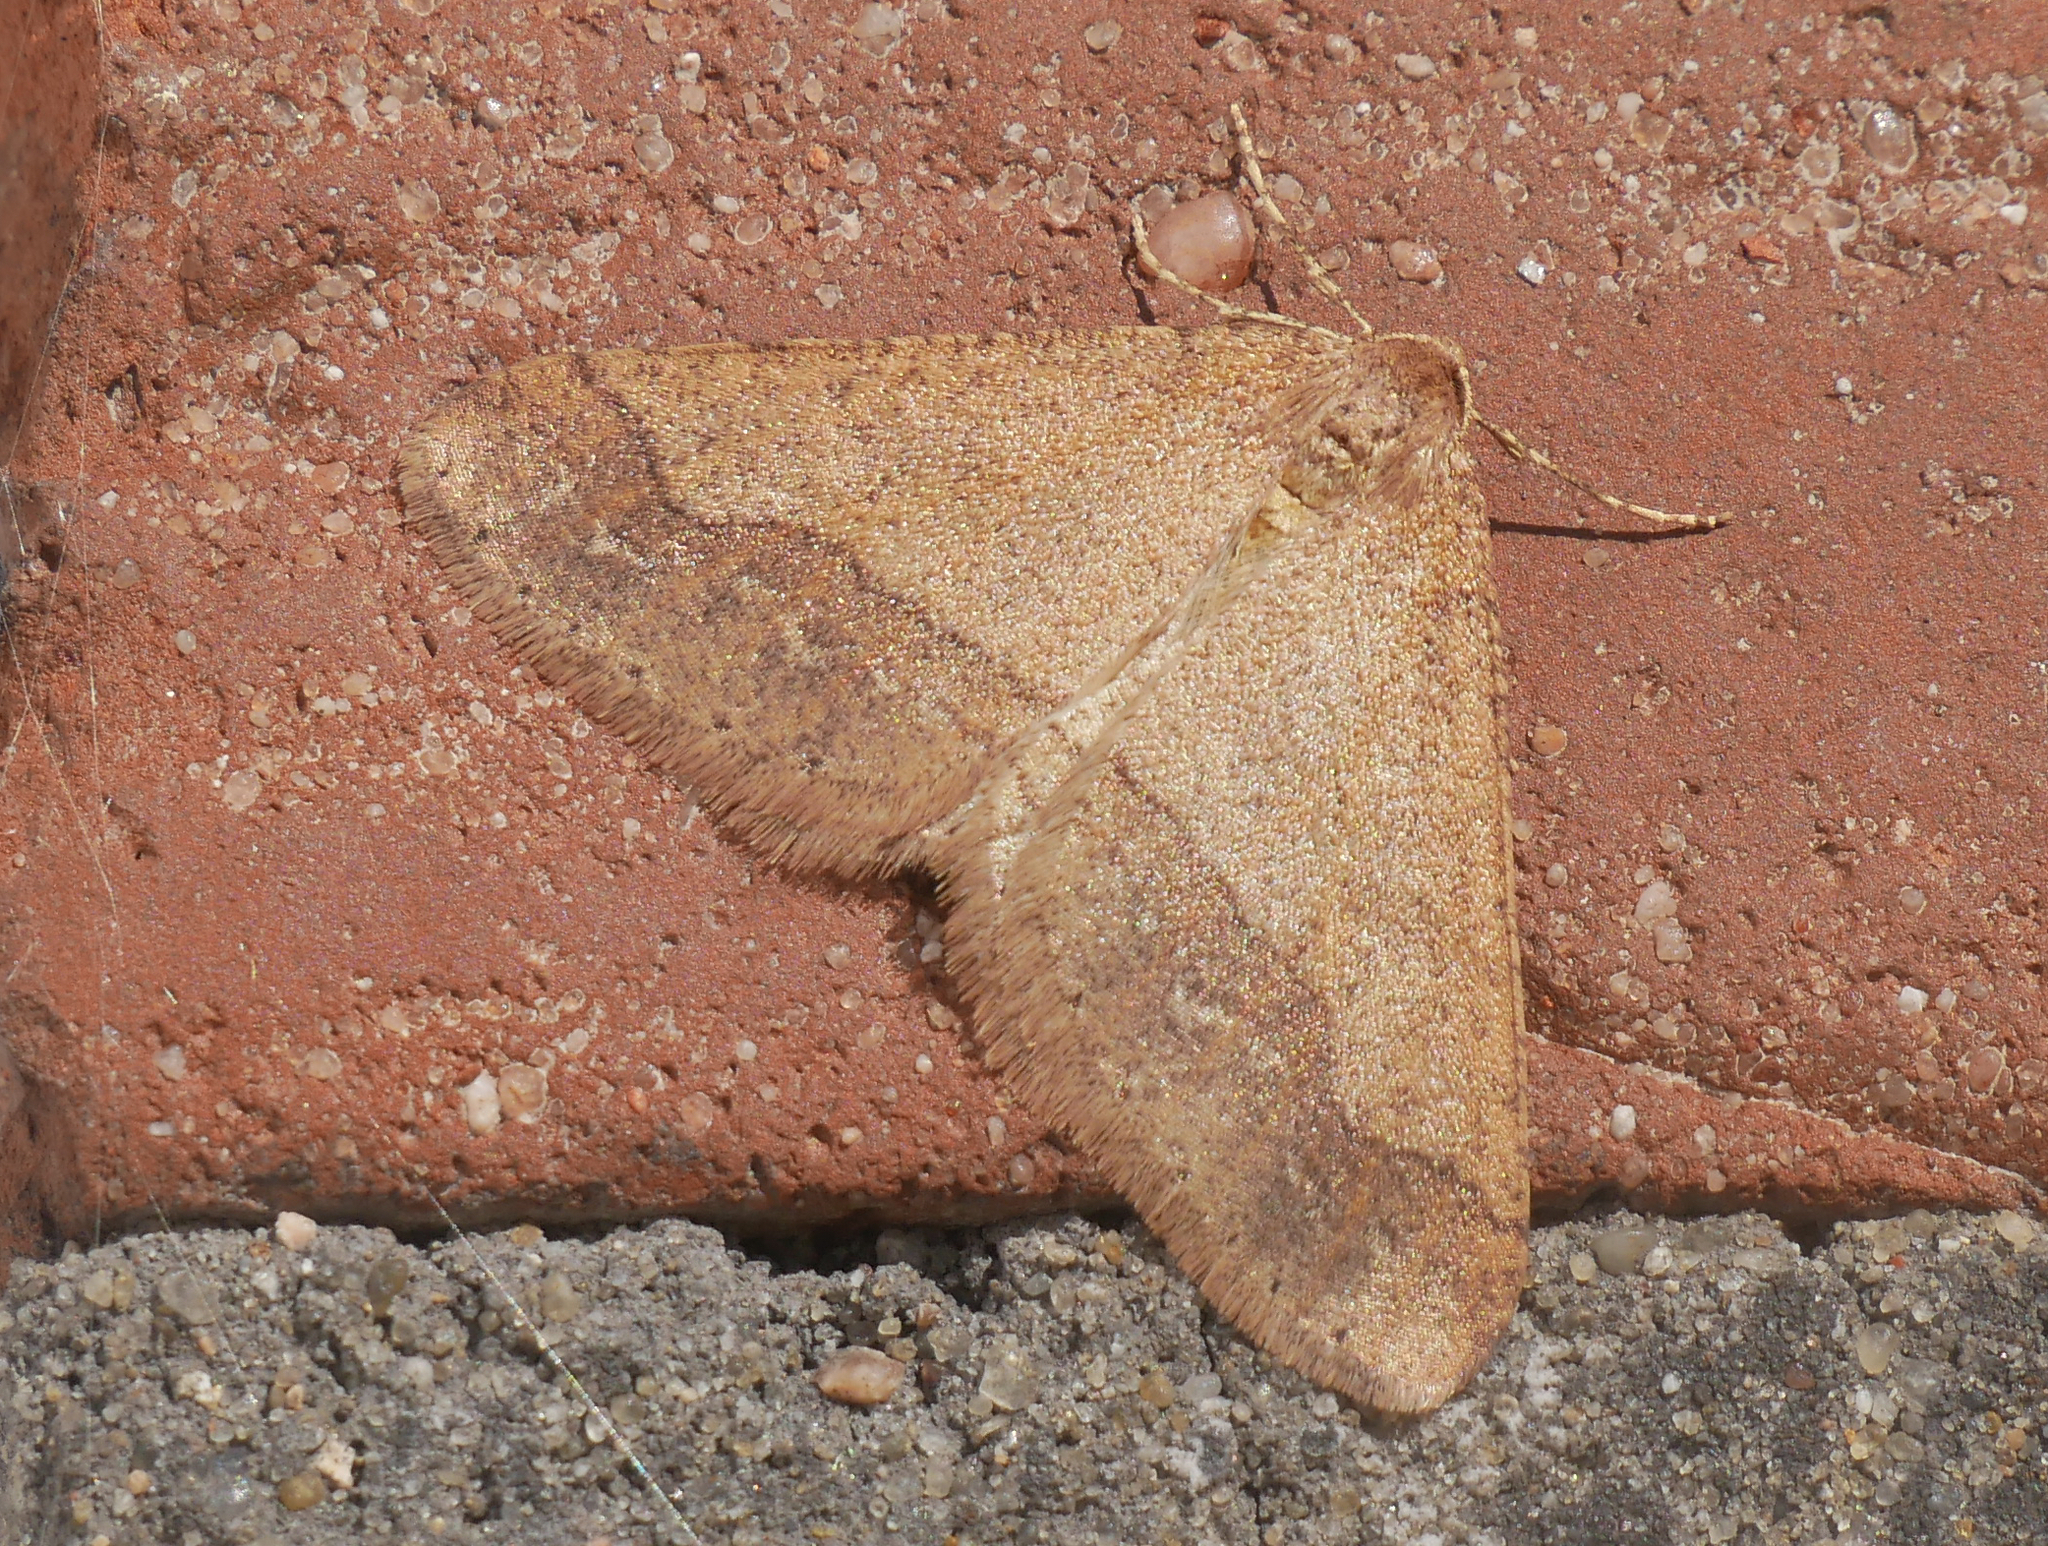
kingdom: Animalia
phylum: Arthropoda
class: Insecta
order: Lepidoptera
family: Geometridae
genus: Agriopis
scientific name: Agriopis marginaria
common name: Dotted border
